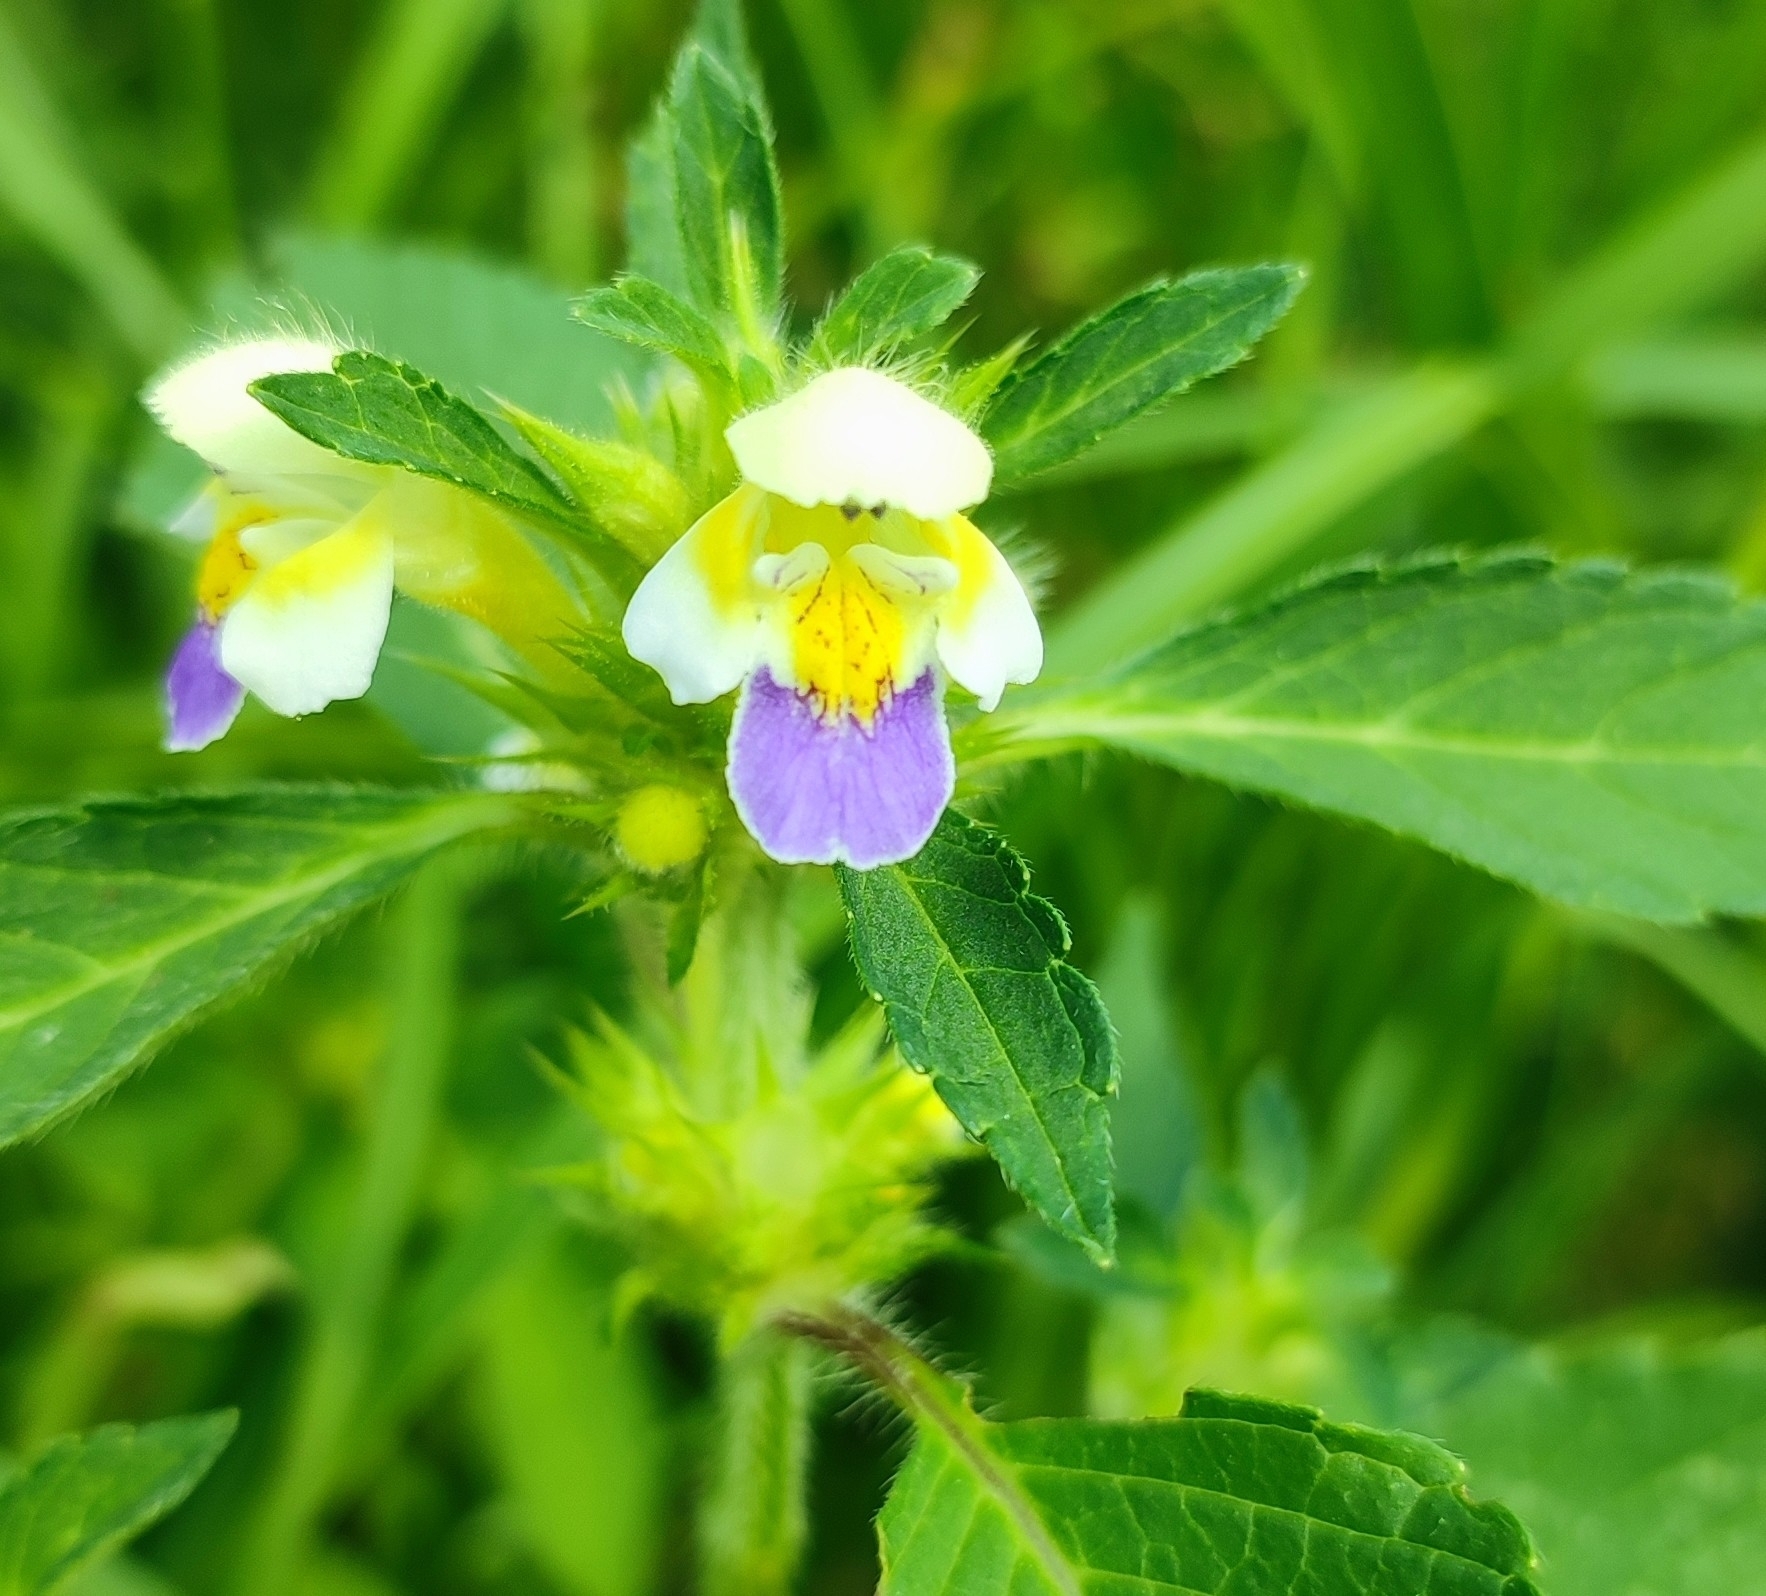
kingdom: Plantae
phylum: Tracheophyta
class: Magnoliopsida
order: Lamiales
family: Lamiaceae
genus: Galeopsis
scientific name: Galeopsis speciosa
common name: Large-flowered hemp-nettle
